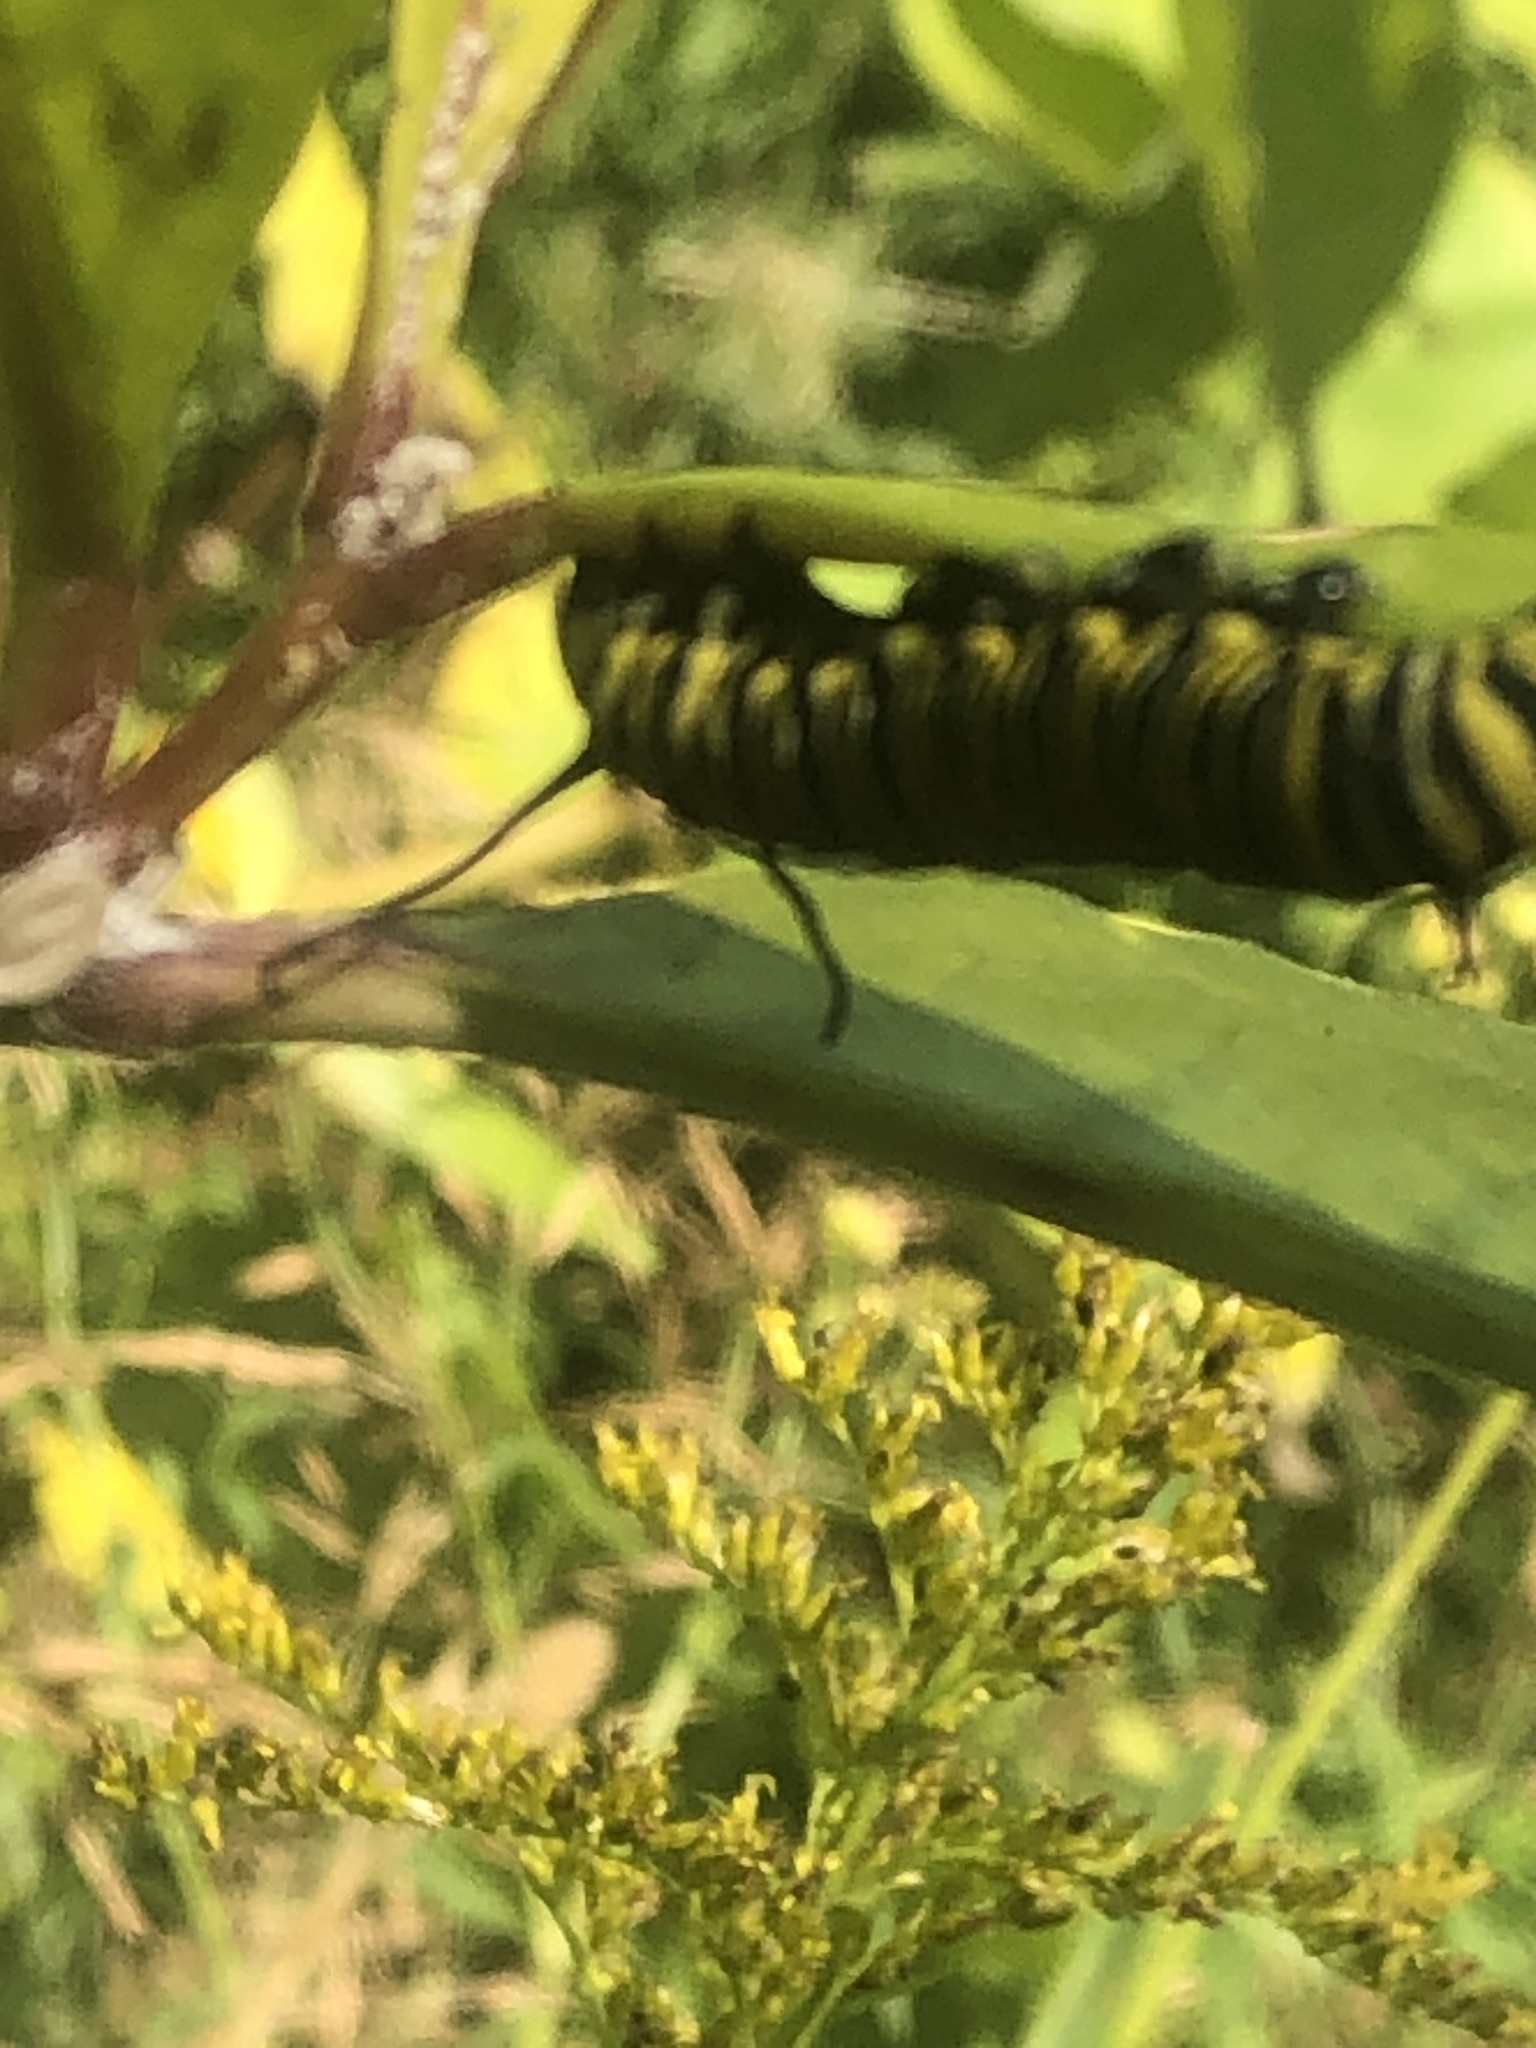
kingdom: Animalia
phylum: Arthropoda
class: Insecta
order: Lepidoptera
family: Nymphalidae
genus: Danaus
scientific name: Danaus plexippus
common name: Monarch
